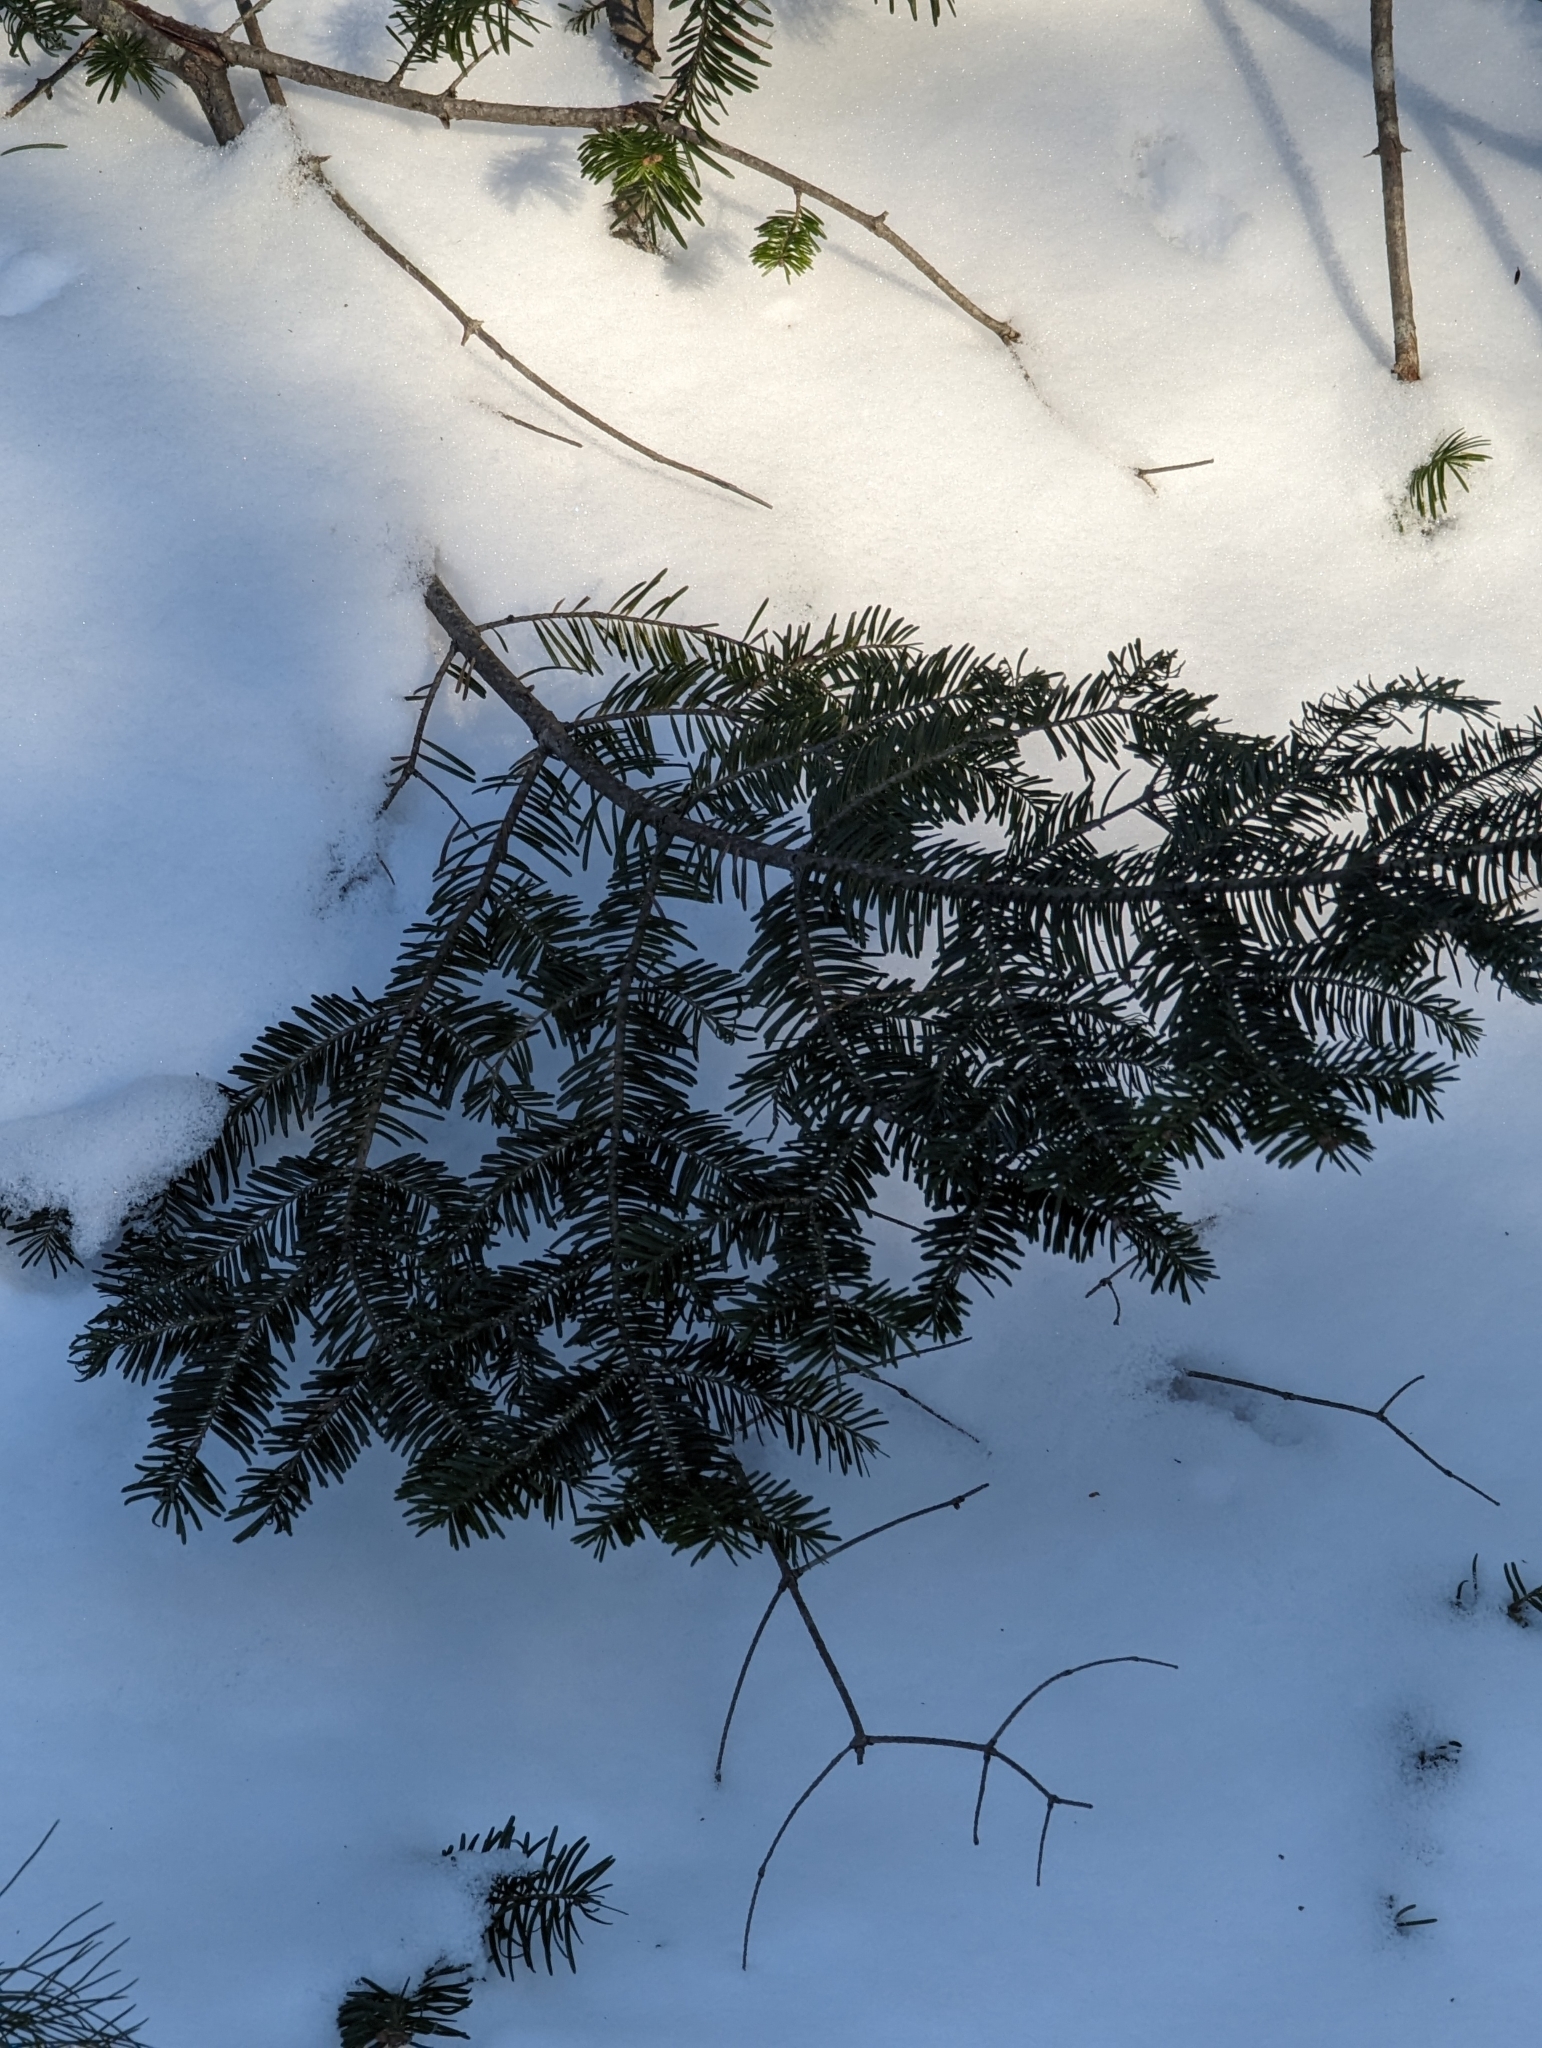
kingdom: Plantae
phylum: Tracheophyta
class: Pinopsida
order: Pinales
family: Pinaceae
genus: Abies
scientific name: Abies balsamea
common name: Balsam fir
